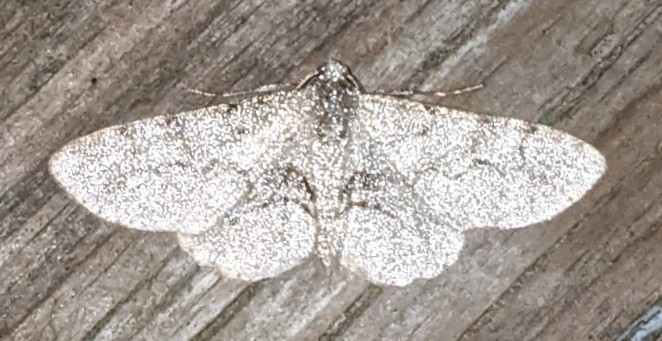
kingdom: Animalia
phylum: Arthropoda
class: Insecta
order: Lepidoptera
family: Geometridae
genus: Iridopsis
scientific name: Iridopsis larvaria
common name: Bent-line gray
